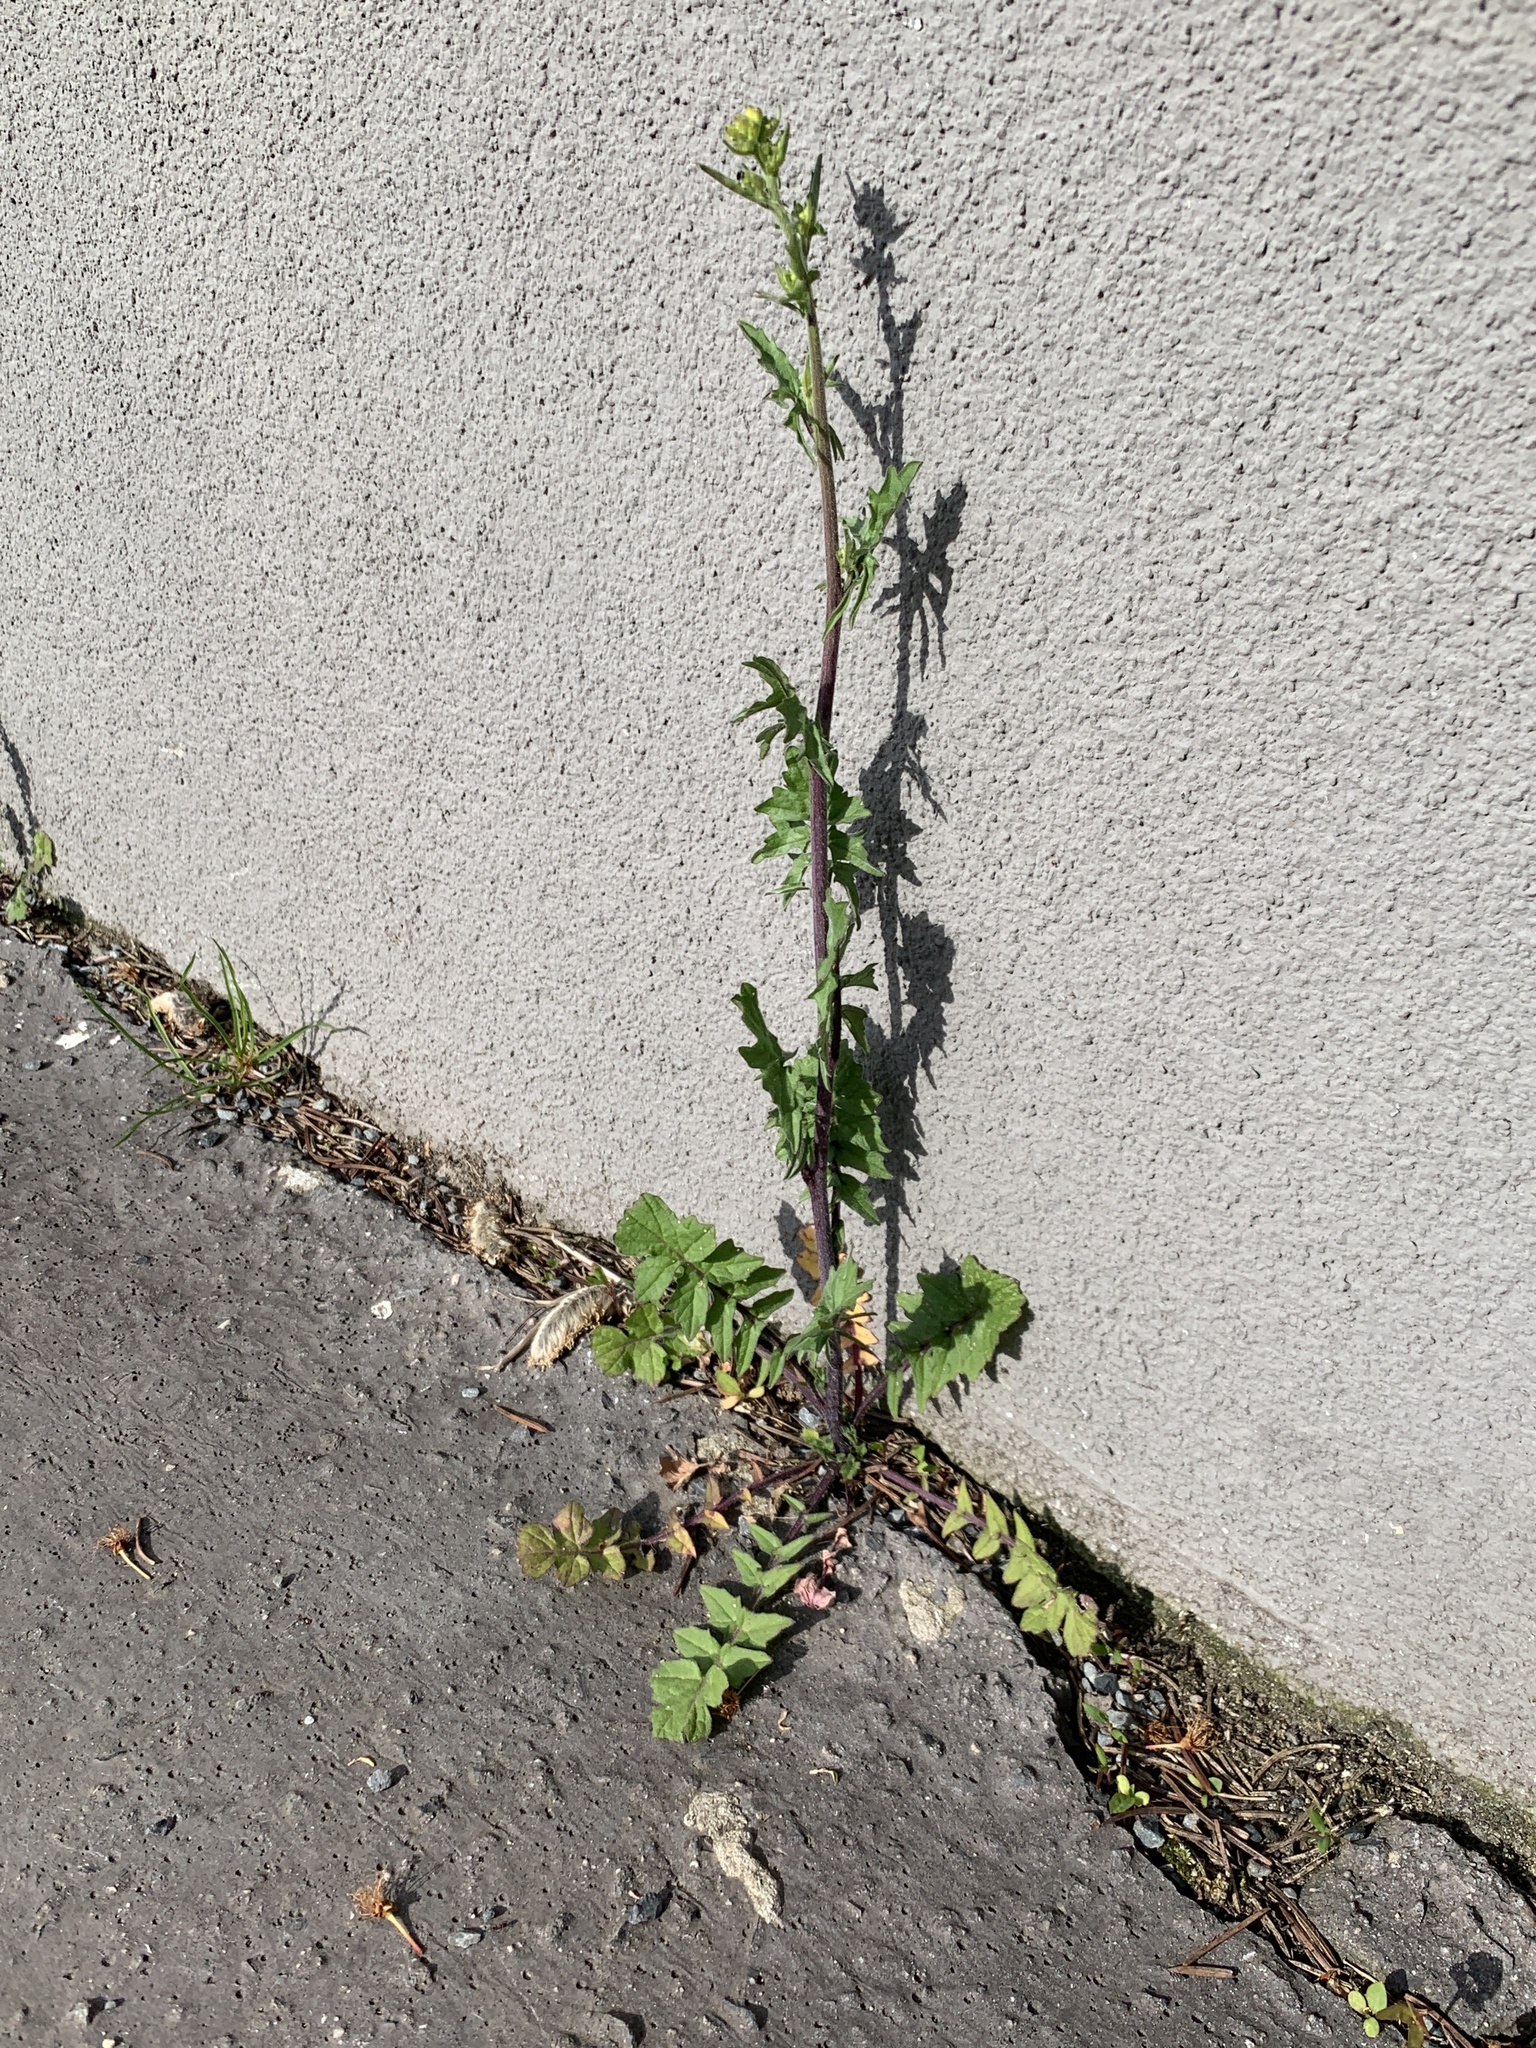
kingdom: Plantae
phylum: Tracheophyta
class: Magnoliopsida
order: Brassicales
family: Brassicaceae
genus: Sisymbrium
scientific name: Sisymbrium officinale
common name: Hedge mustard
